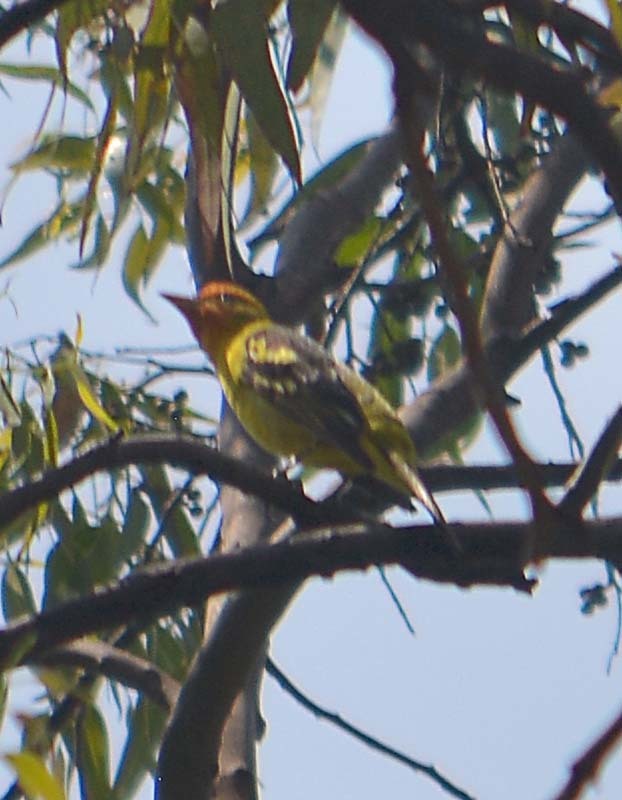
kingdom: Animalia
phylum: Chordata
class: Aves
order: Passeriformes
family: Cardinalidae
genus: Piranga
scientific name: Piranga ludoviciana
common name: Western tanager
